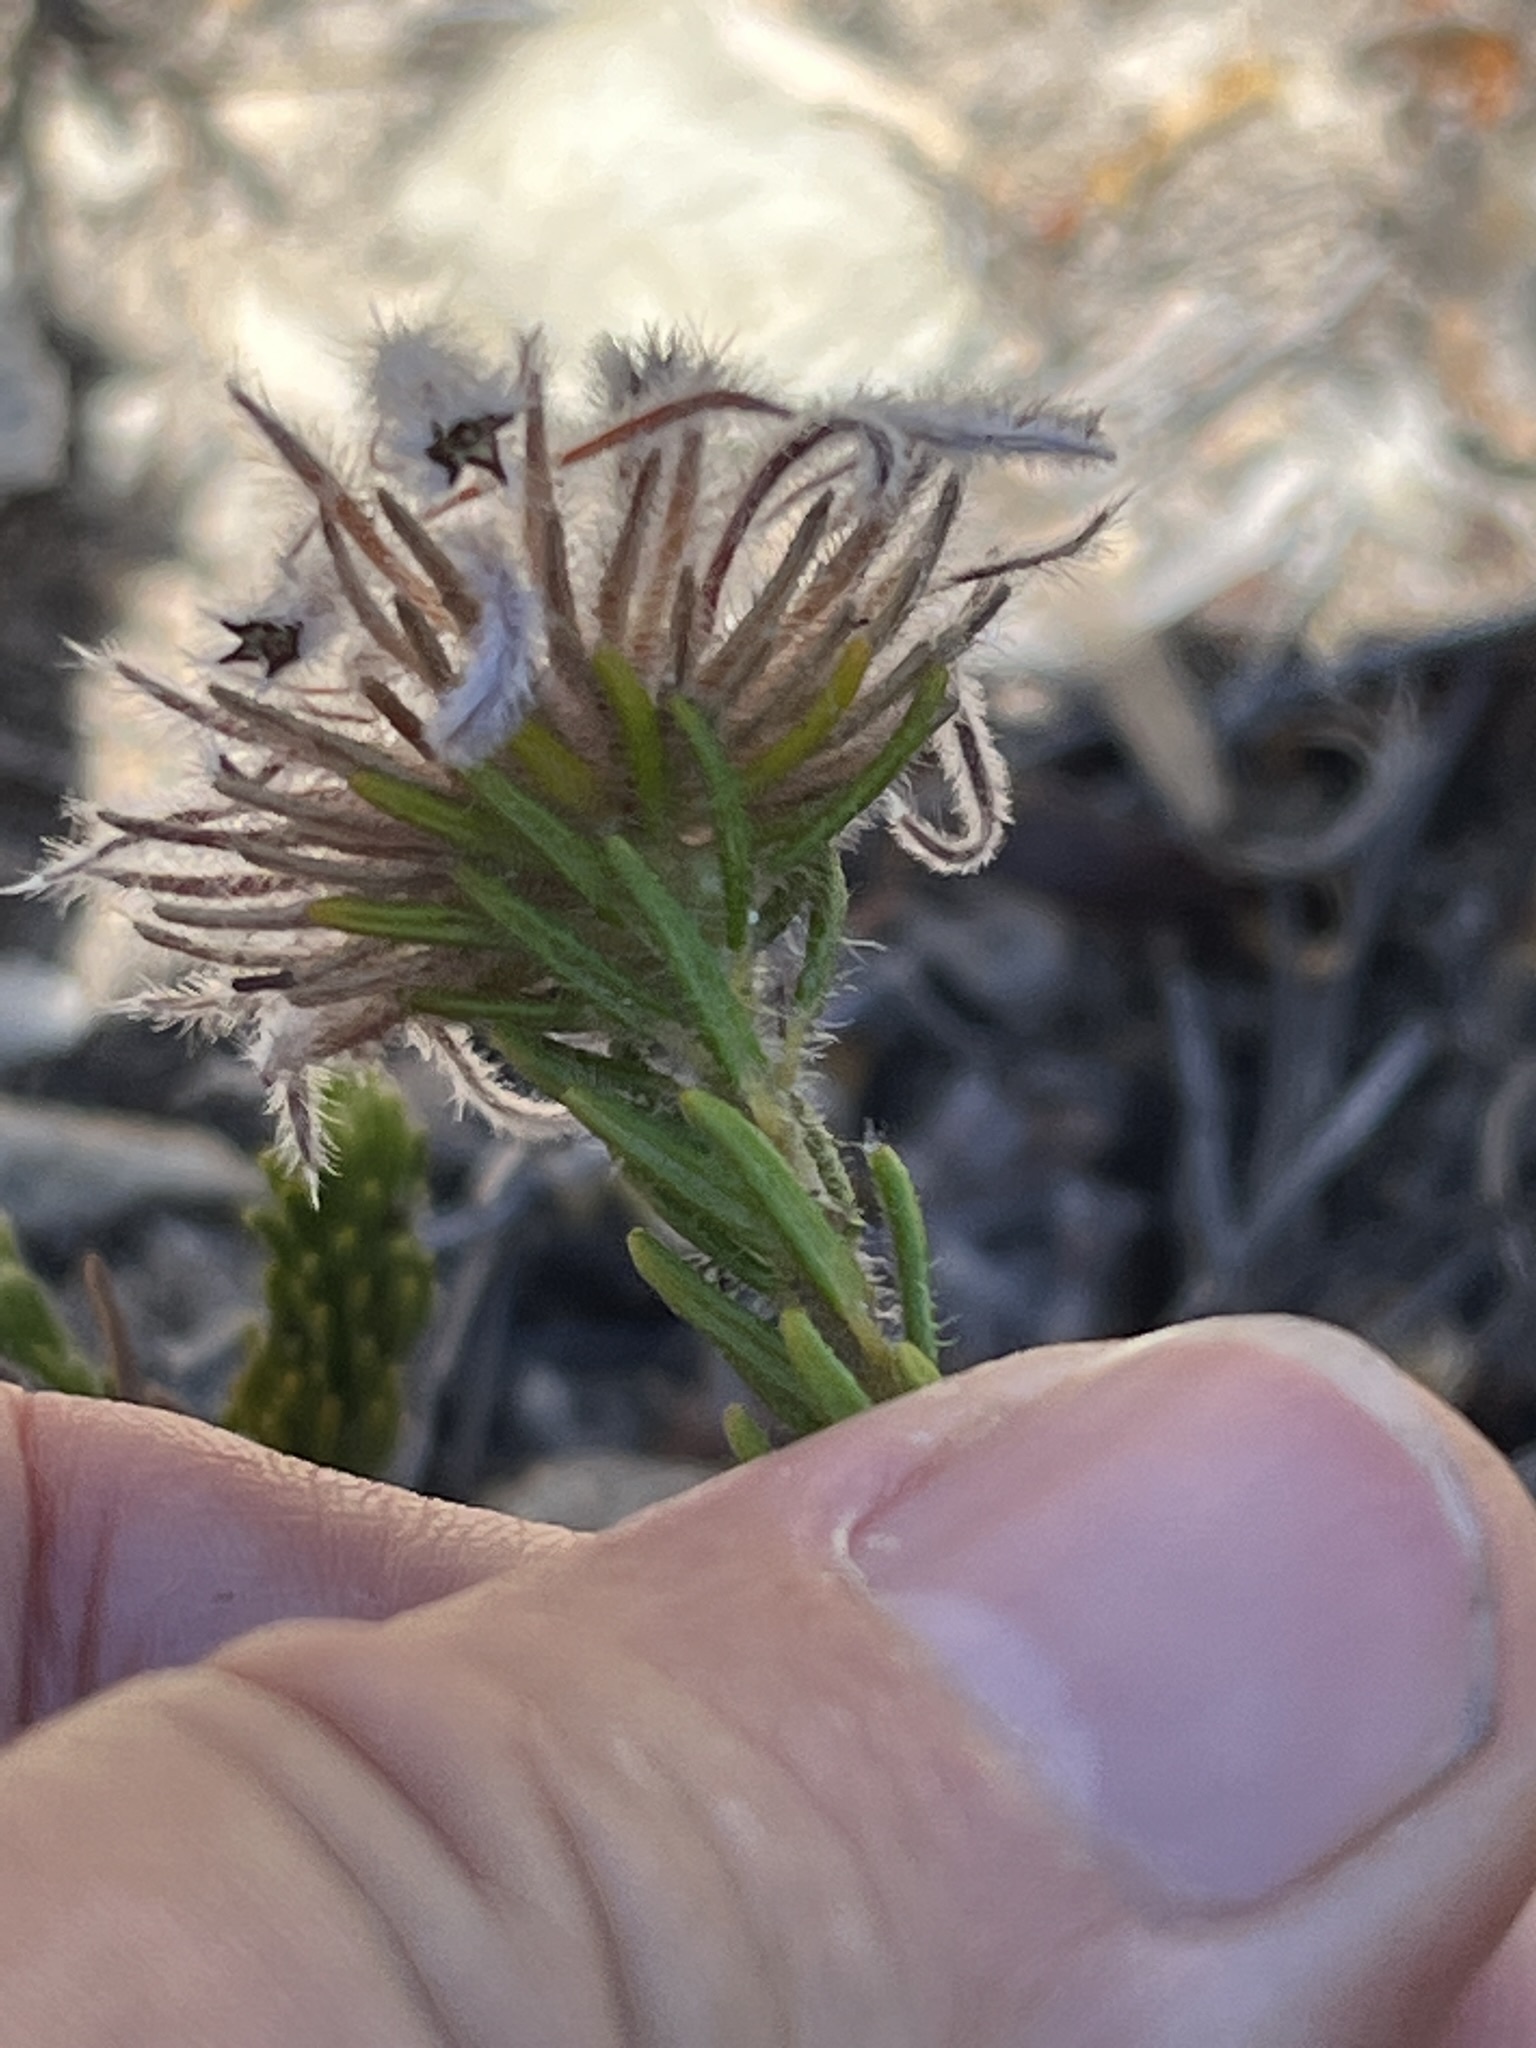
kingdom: Plantae
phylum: Tracheophyta
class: Magnoliopsida
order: Rosales
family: Rhamnaceae
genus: Phylica
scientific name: Phylica plumigera
